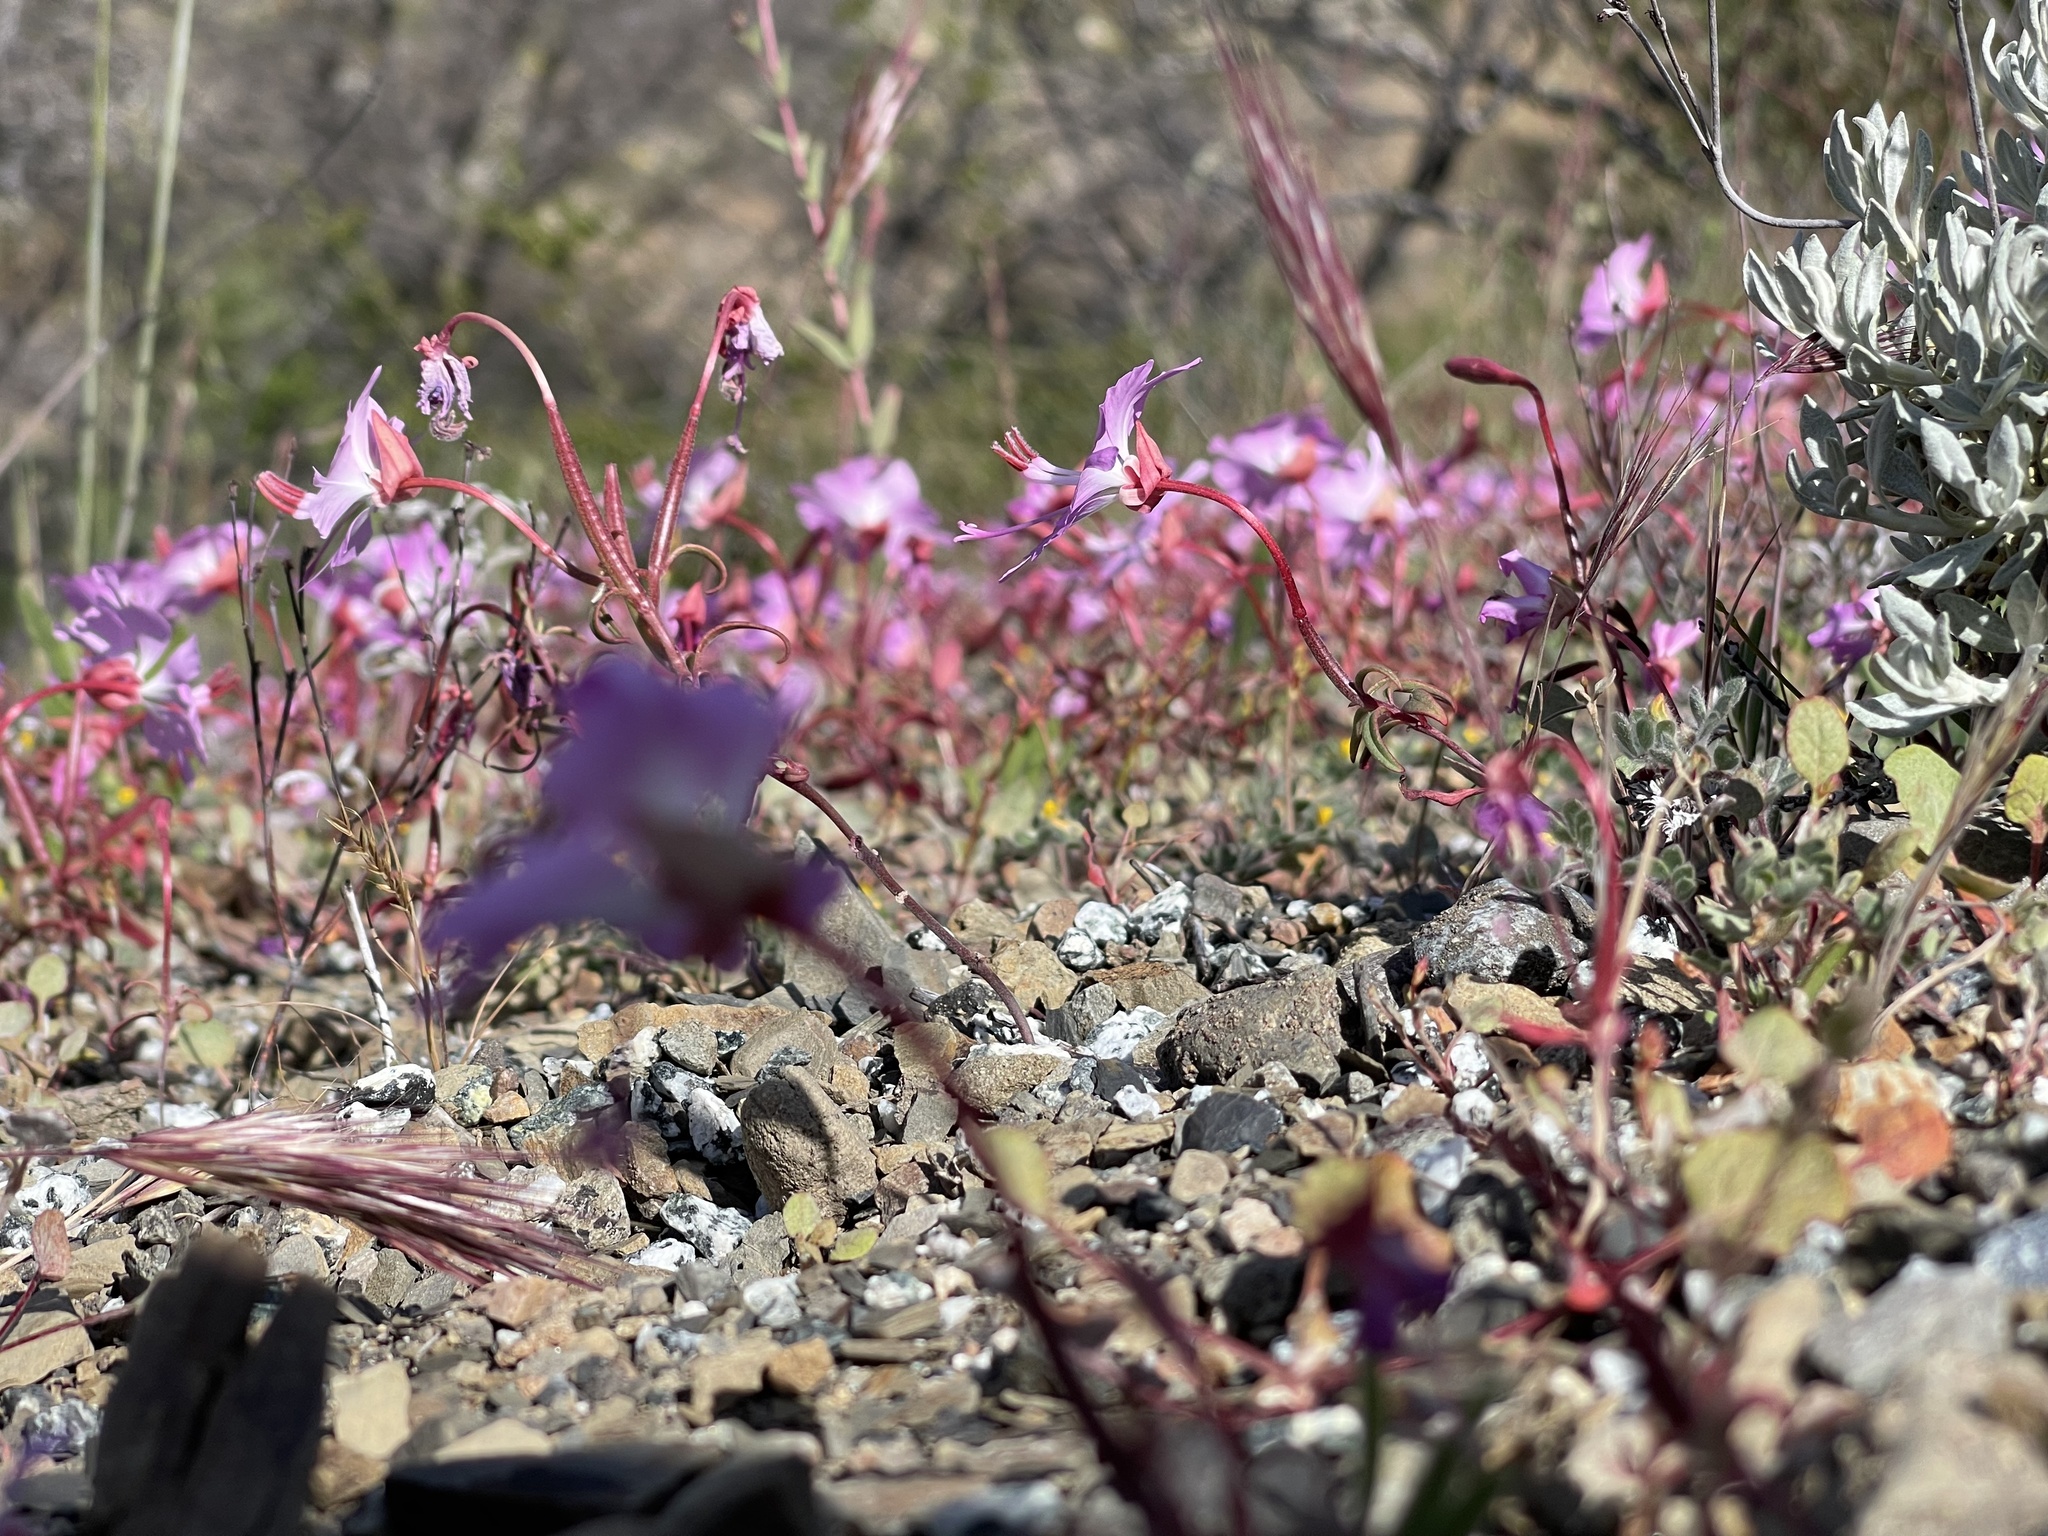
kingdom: Plantae
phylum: Tracheophyta
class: Magnoliopsida
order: Myrtales
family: Onagraceae
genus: Clarkia
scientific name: Clarkia breweri
